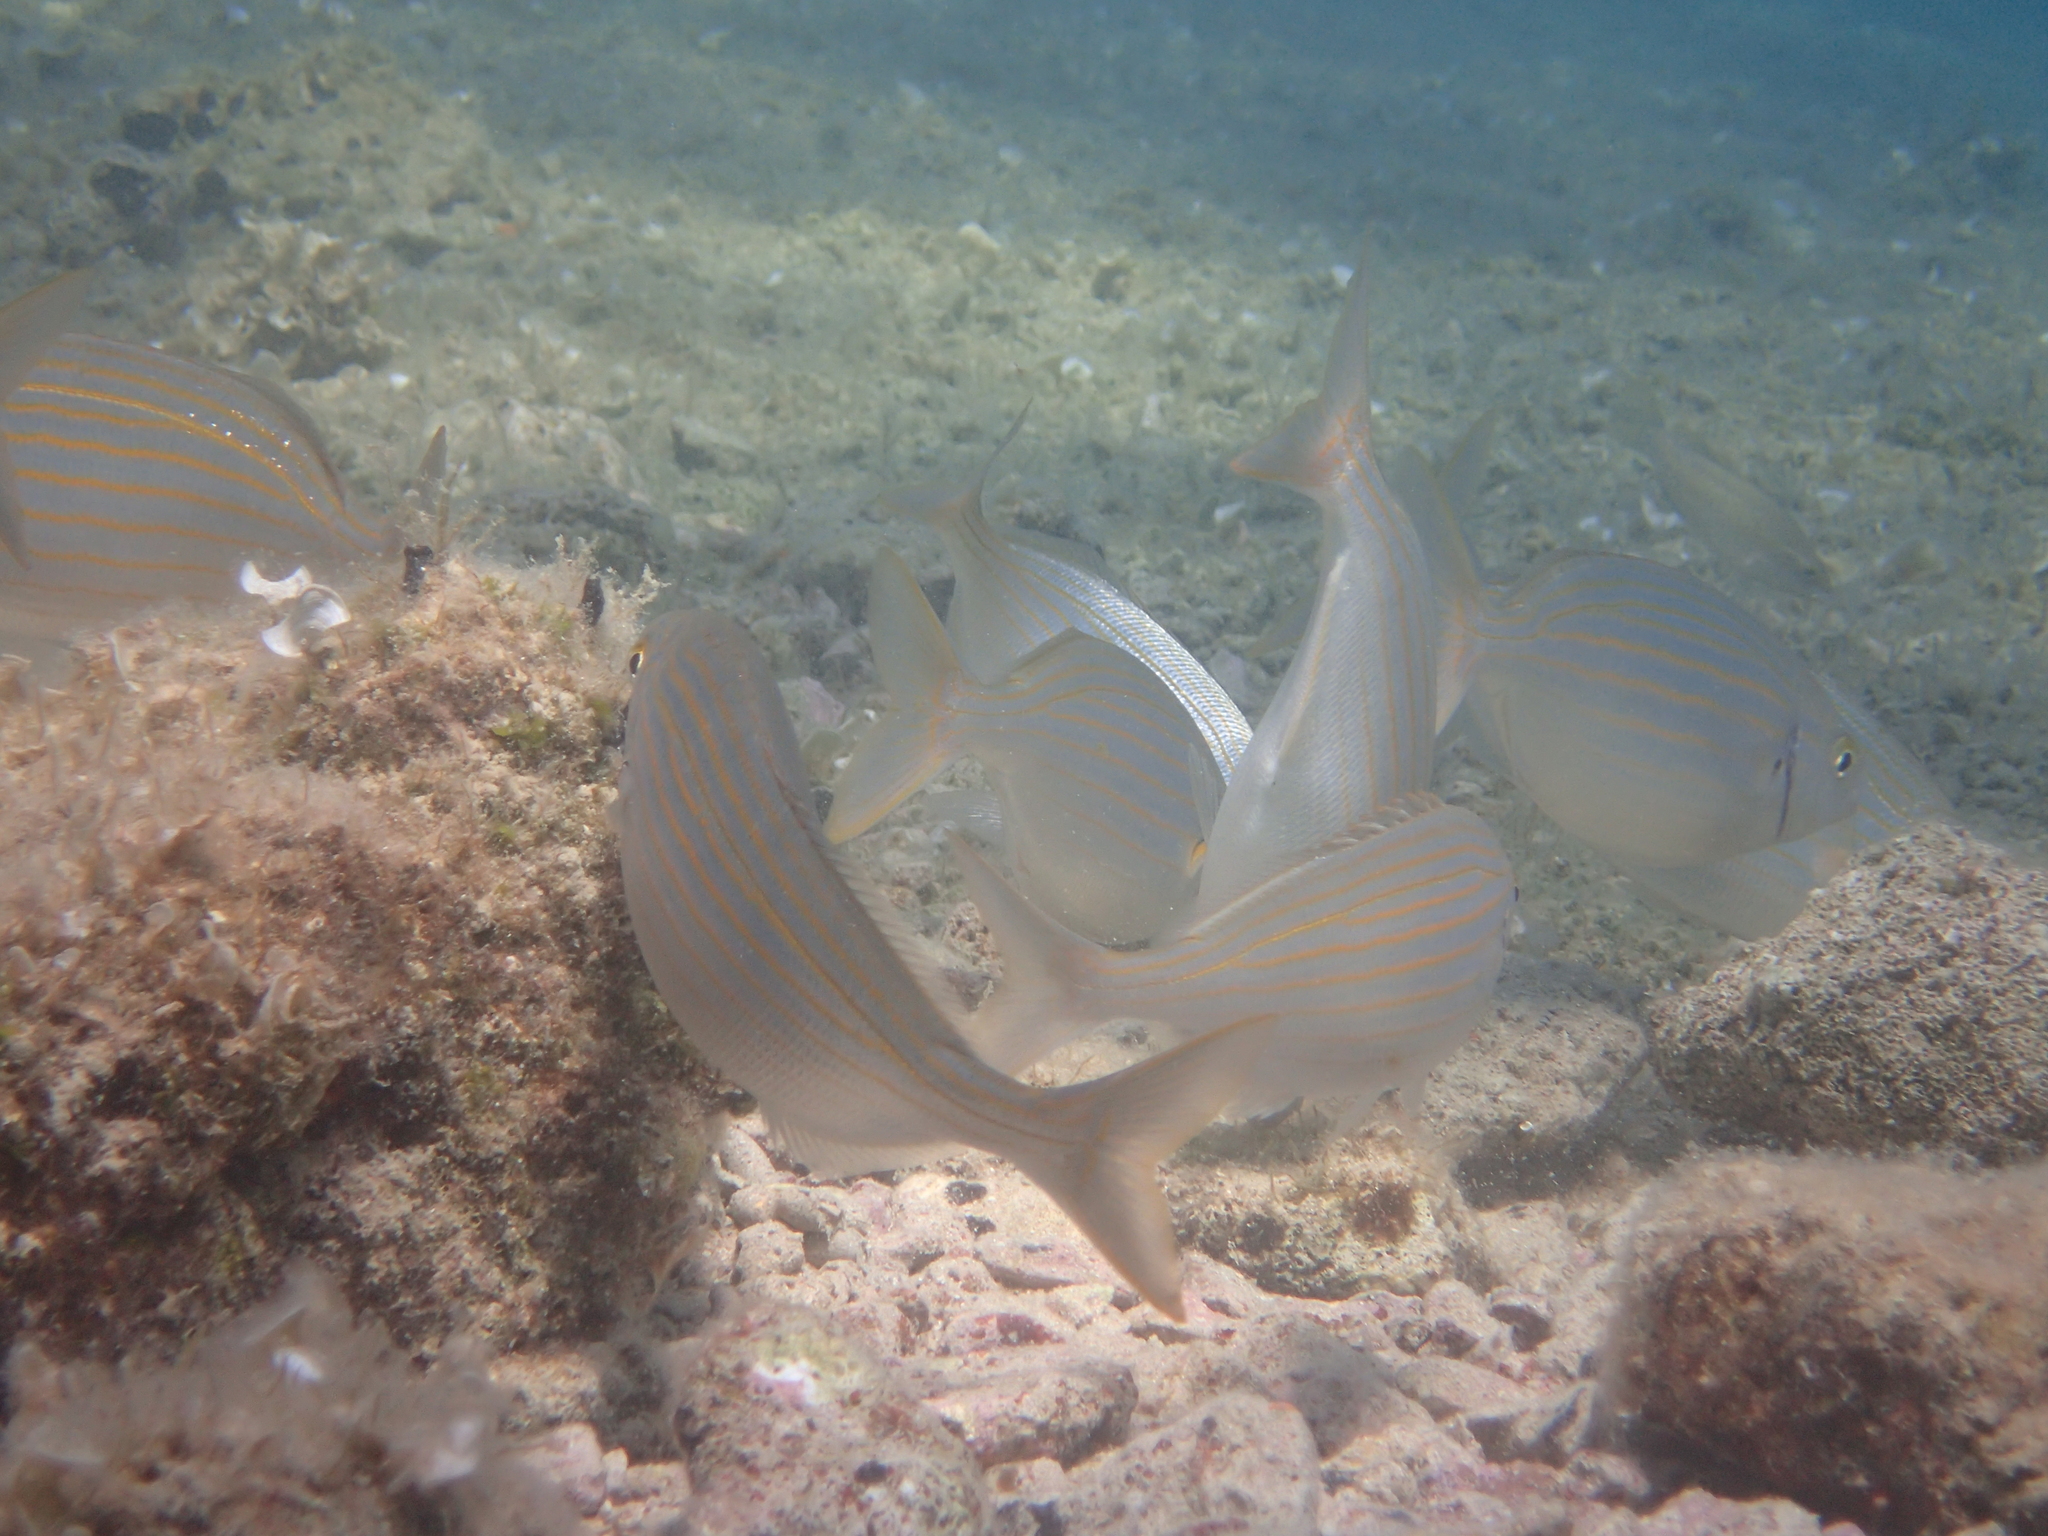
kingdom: Animalia
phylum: Chordata
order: Perciformes
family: Sparidae
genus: Sarpa
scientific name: Sarpa salpa
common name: Salema
